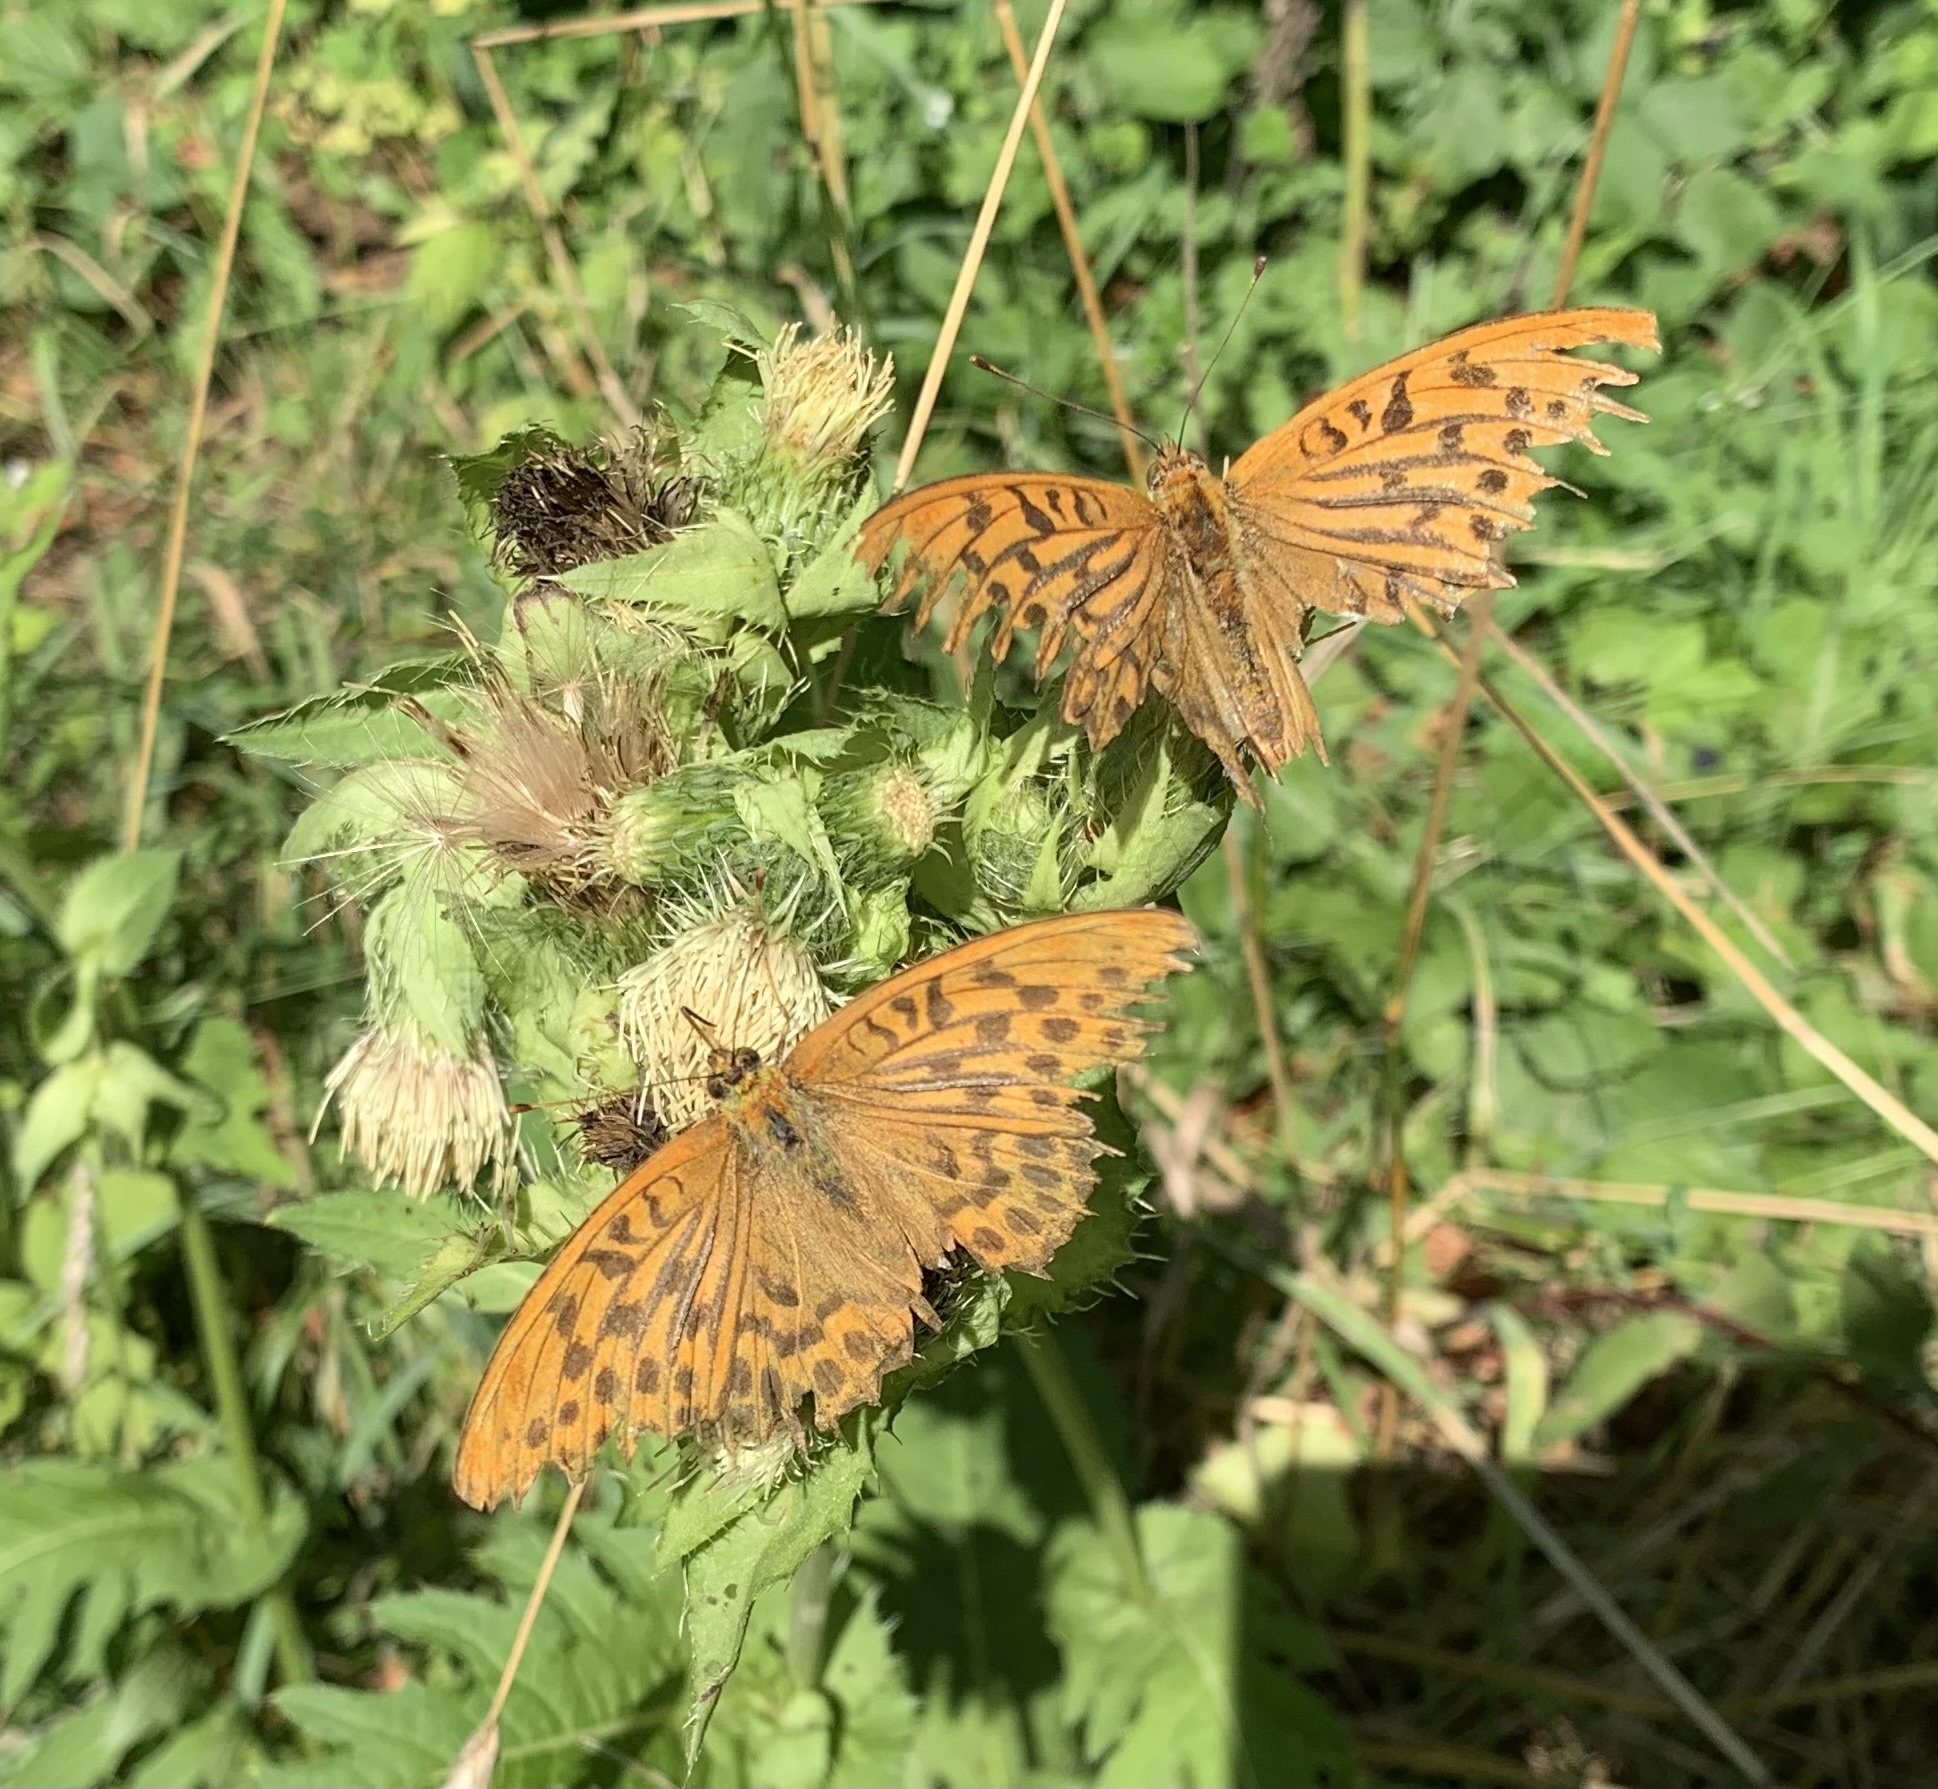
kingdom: Animalia
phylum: Arthropoda
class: Insecta
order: Lepidoptera
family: Nymphalidae
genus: Argynnis
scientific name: Argynnis paphia
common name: Silver-washed fritillary
